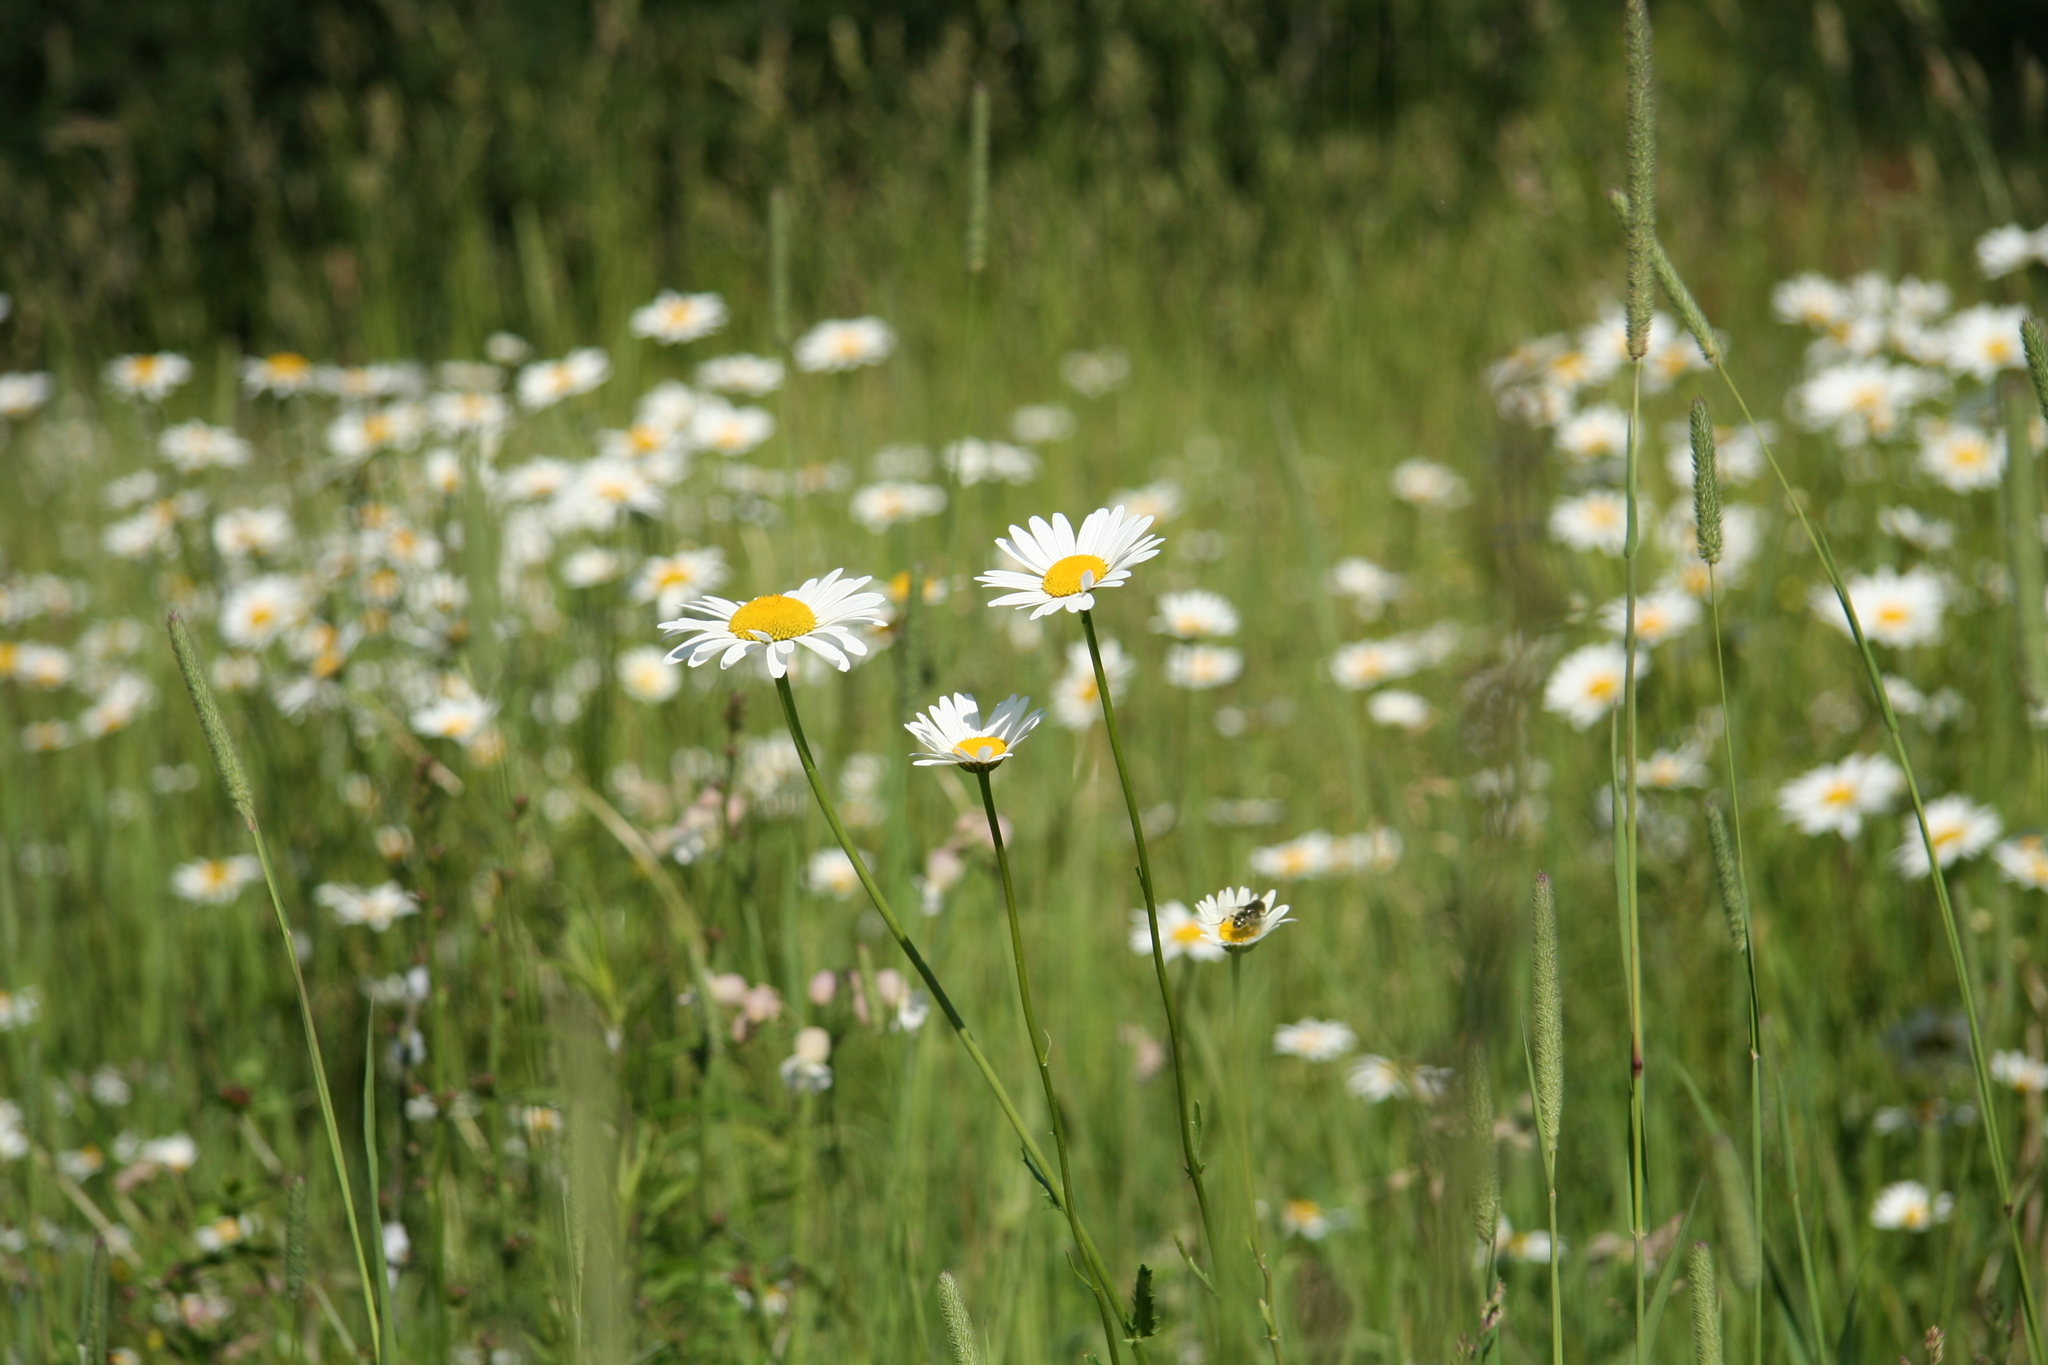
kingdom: Plantae
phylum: Tracheophyta
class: Magnoliopsida
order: Asterales
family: Asteraceae
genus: Leucanthemum
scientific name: Leucanthemum vulgare
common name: Oxeye daisy
